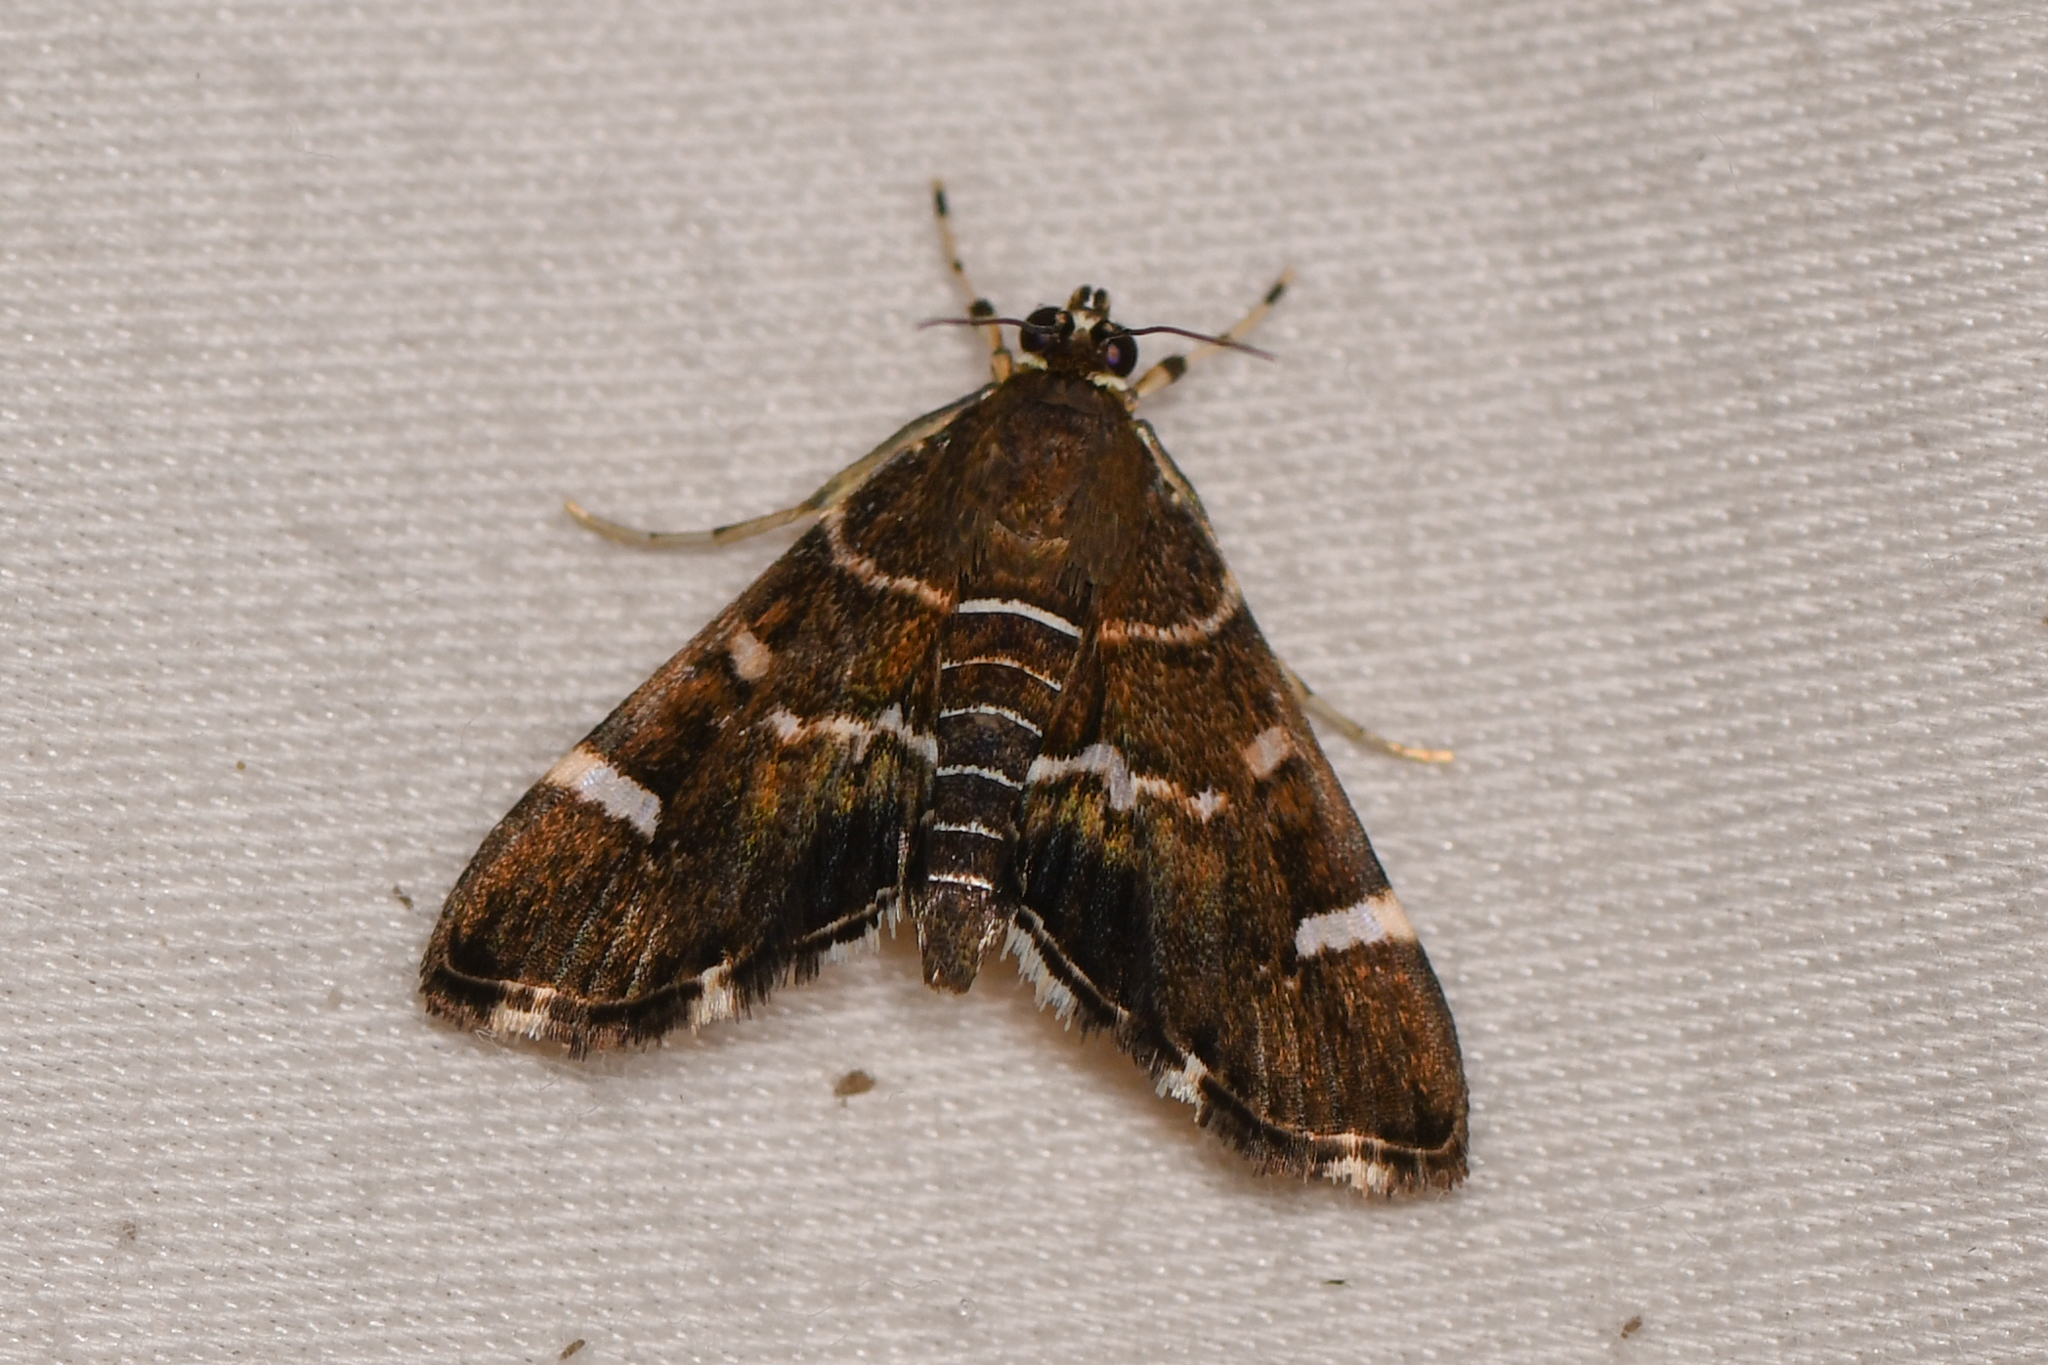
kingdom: Animalia
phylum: Arthropoda
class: Insecta
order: Lepidoptera
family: Crambidae
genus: Hymenia
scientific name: Hymenia perspectalis
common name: Spotted beet webworm
